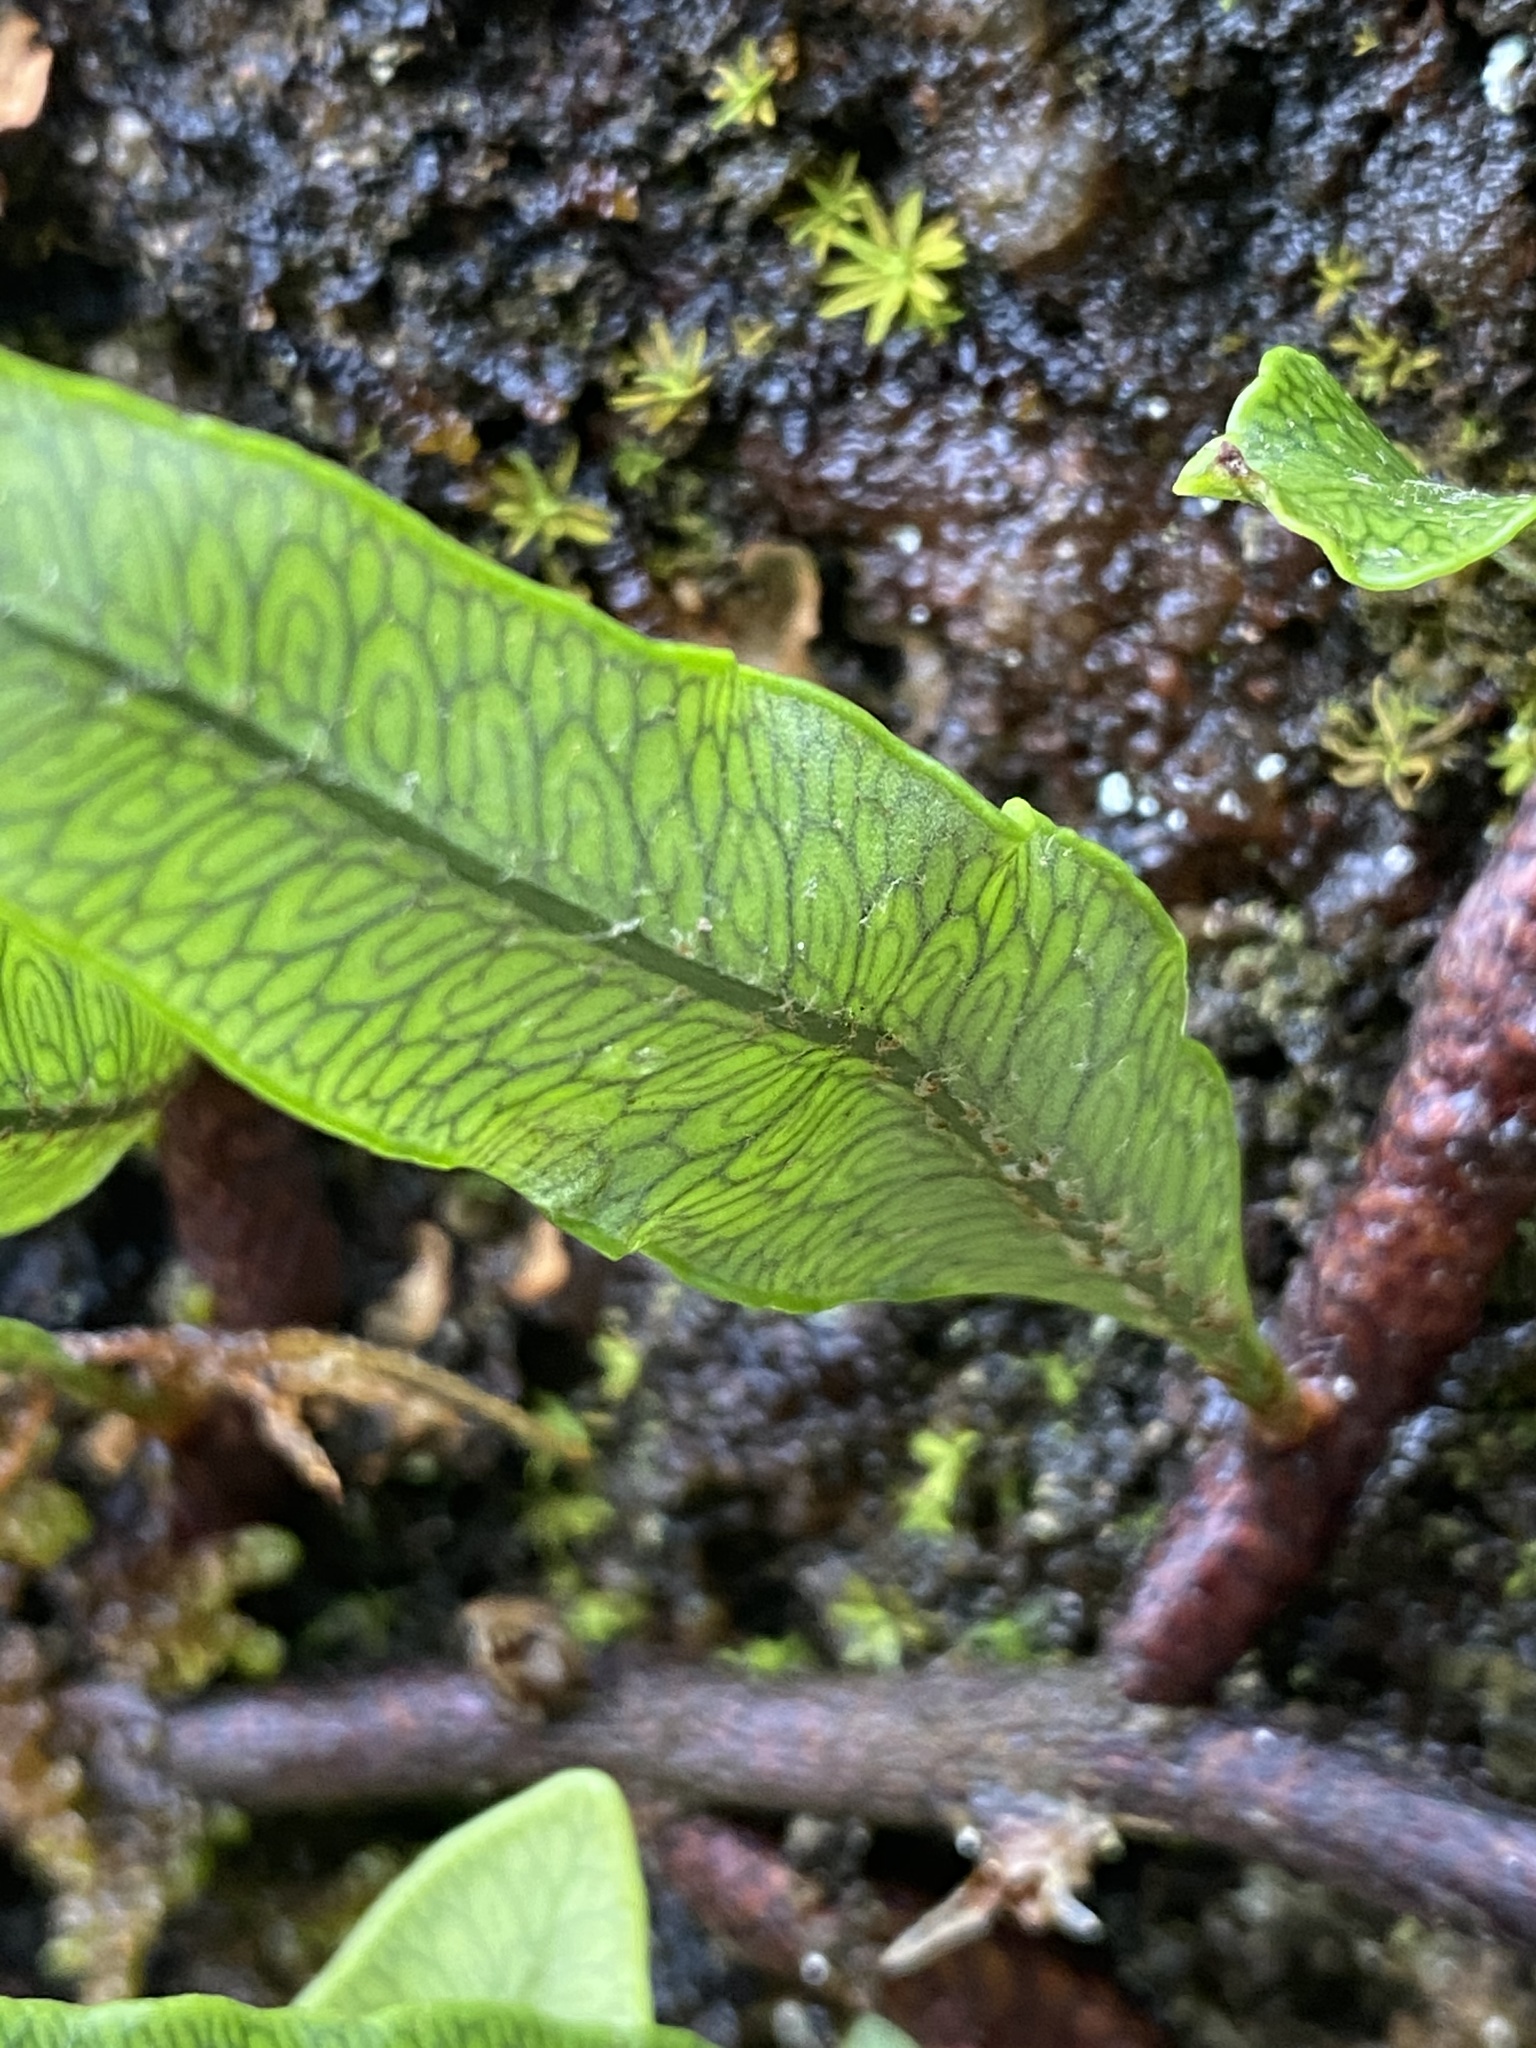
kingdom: Plantae
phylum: Tracheophyta
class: Polypodiopsida
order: Polypodiales
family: Polypodiaceae
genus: Microgramma
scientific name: Microgramma squamulosa
